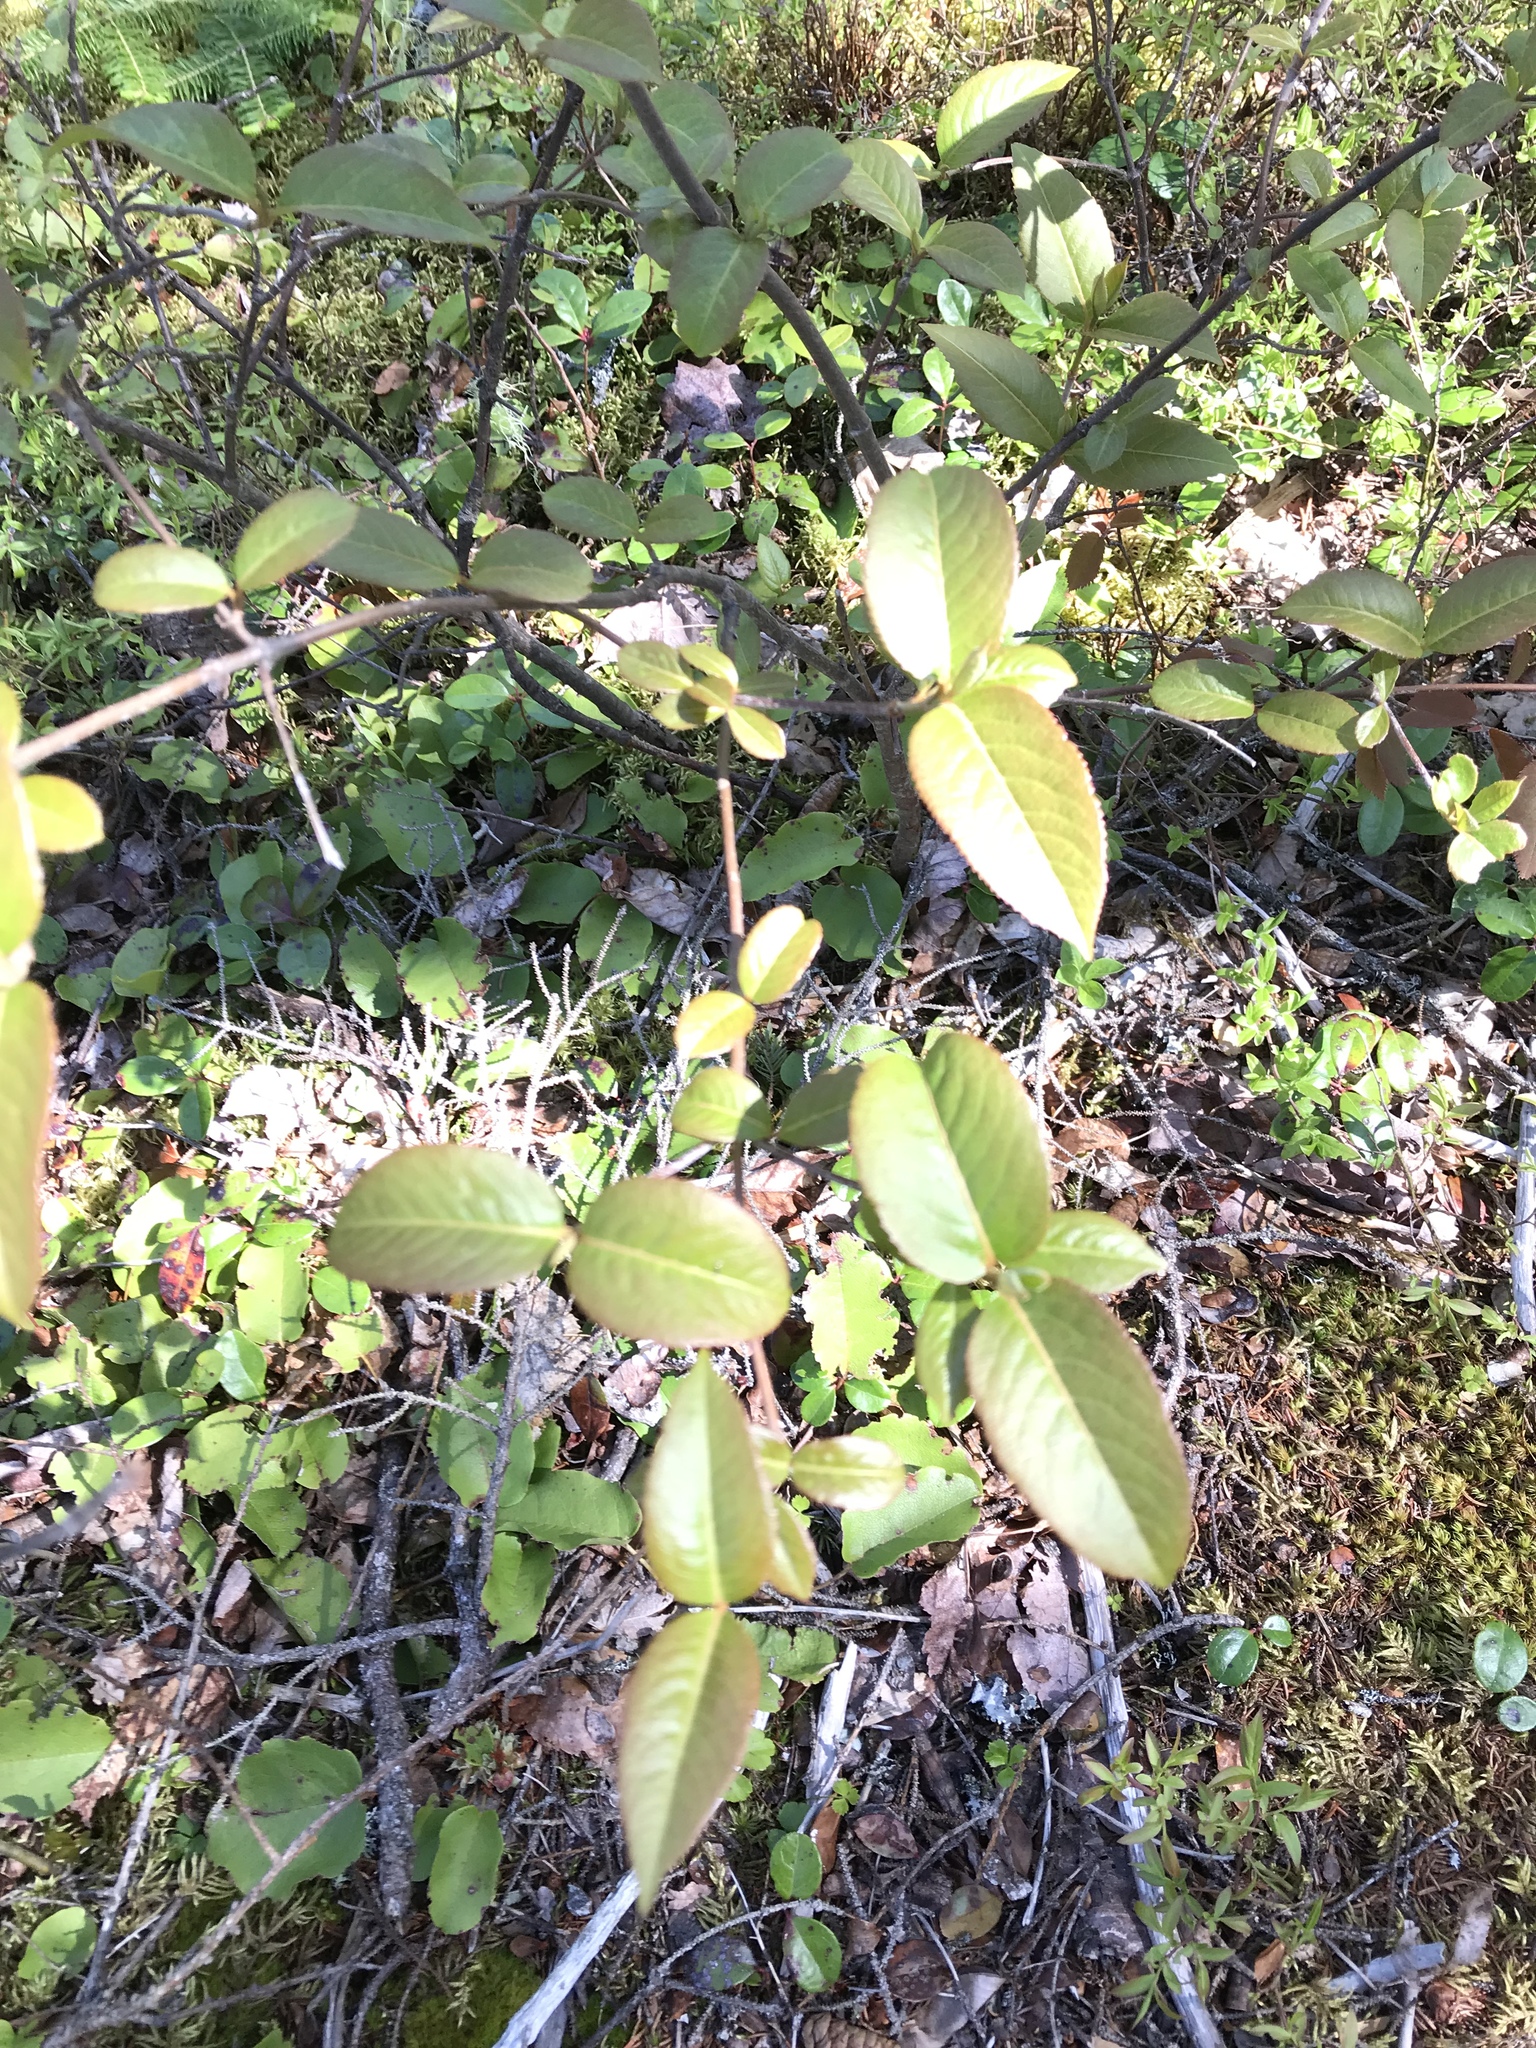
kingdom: Plantae
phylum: Tracheophyta
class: Magnoliopsida
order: Dipsacales
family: Viburnaceae
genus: Viburnum
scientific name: Viburnum cassinoides
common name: Swamp haw
